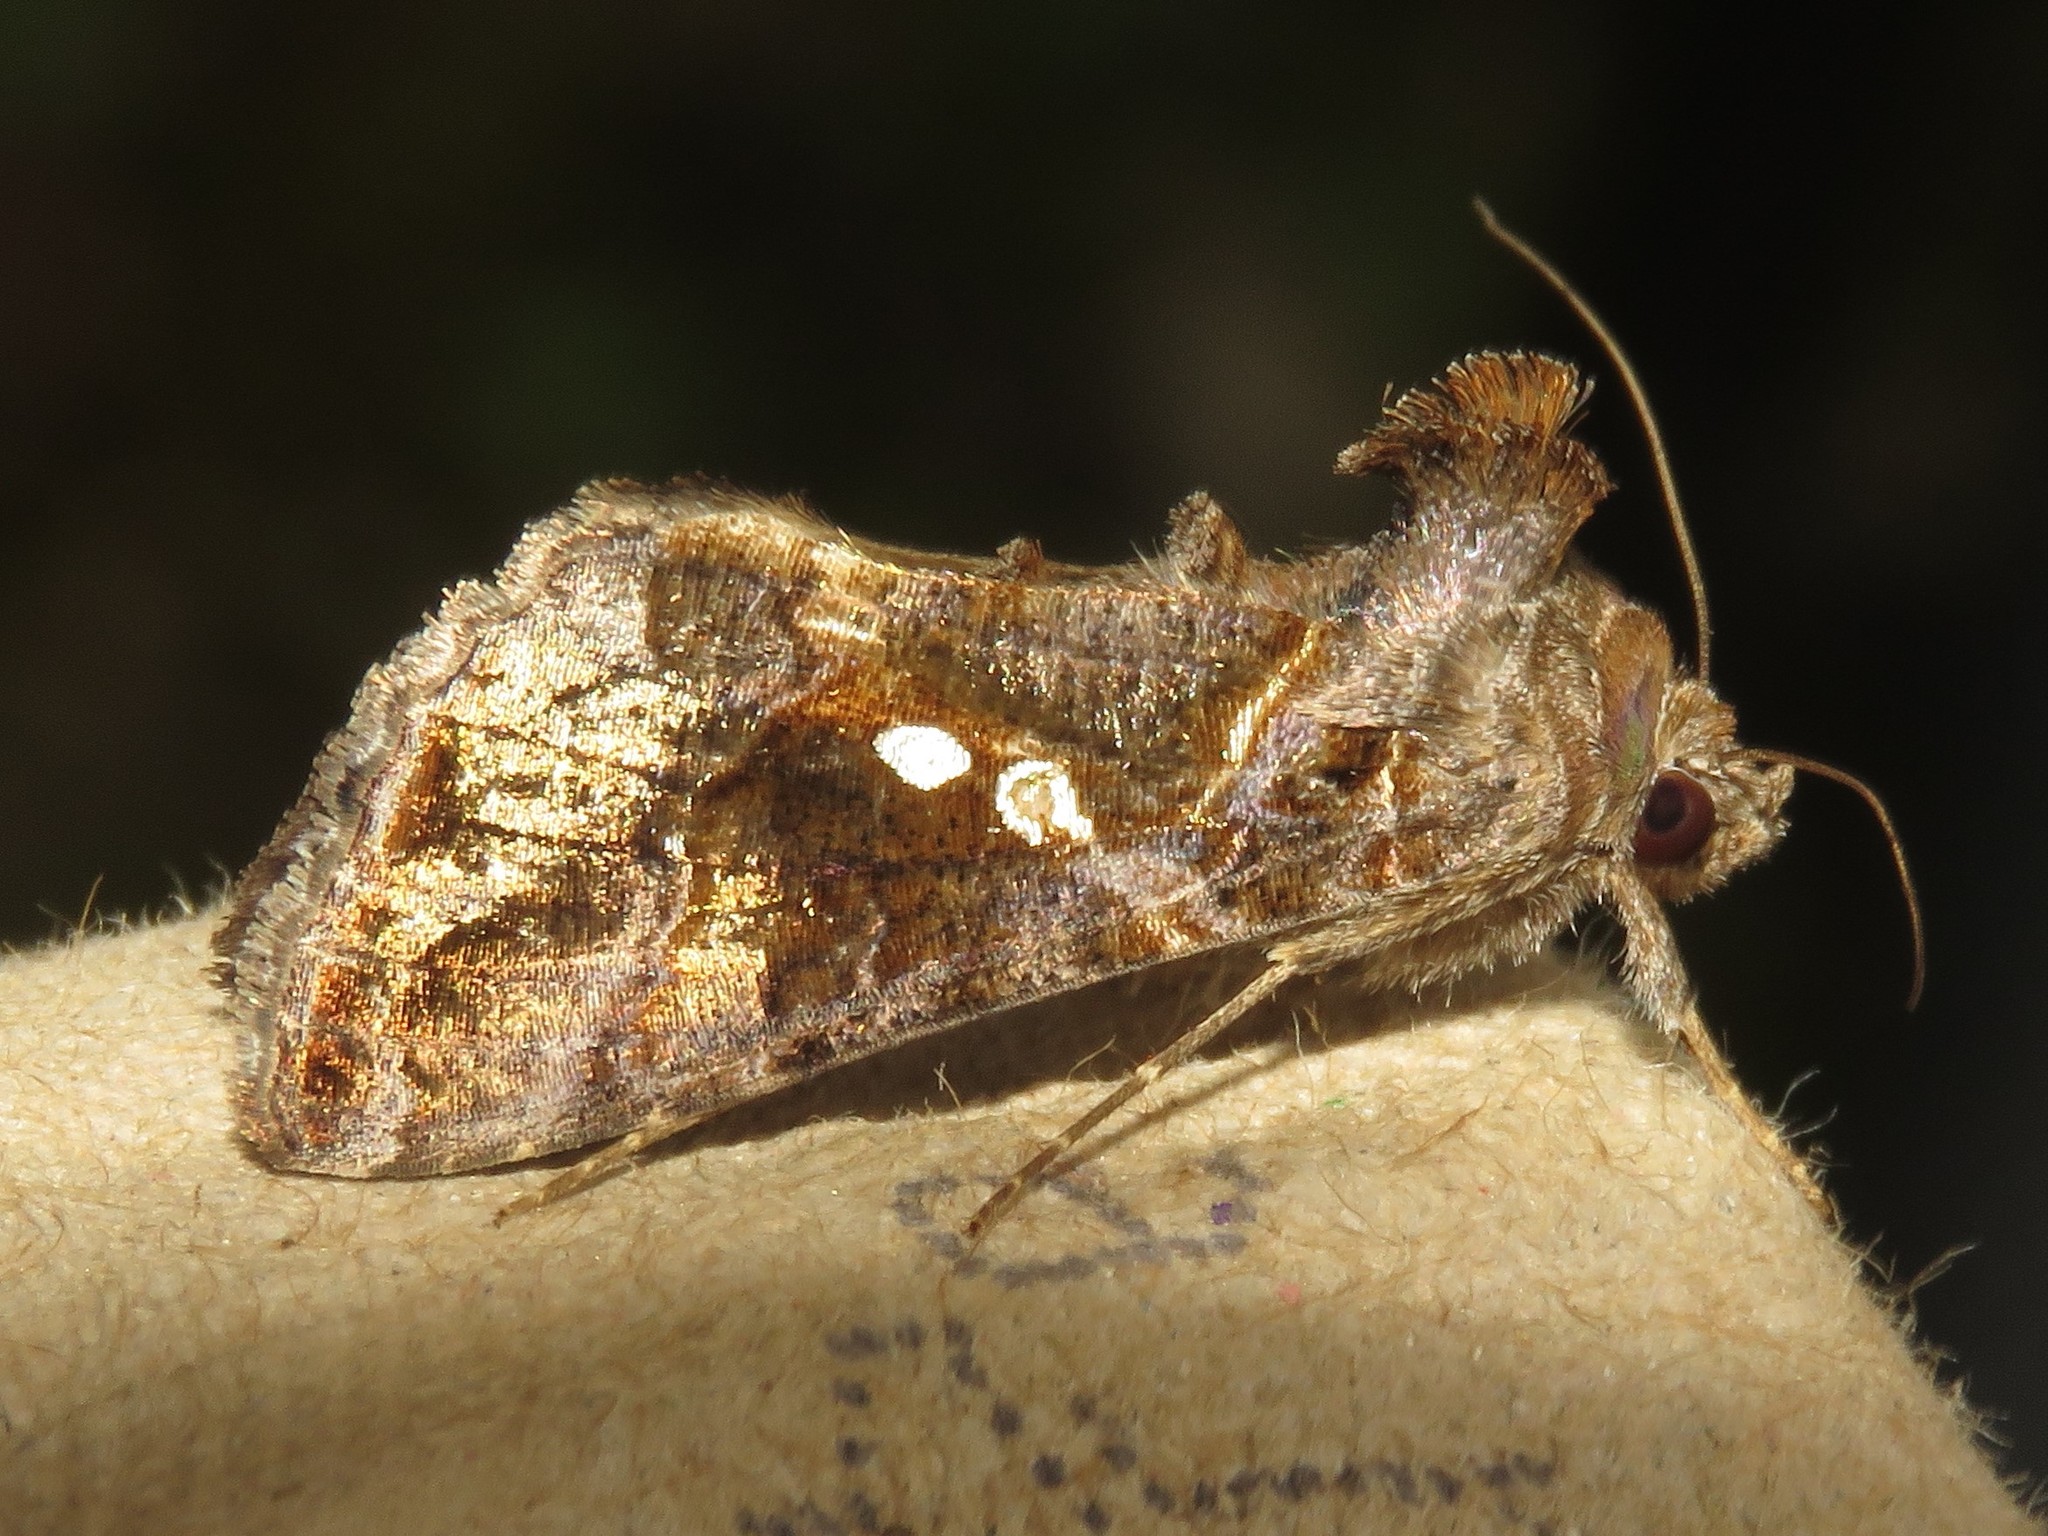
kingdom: Animalia
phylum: Arthropoda
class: Insecta
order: Lepidoptera
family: Noctuidae
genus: Chrysodeixis
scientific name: Chrysodeixis includens
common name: Cutworm moth
